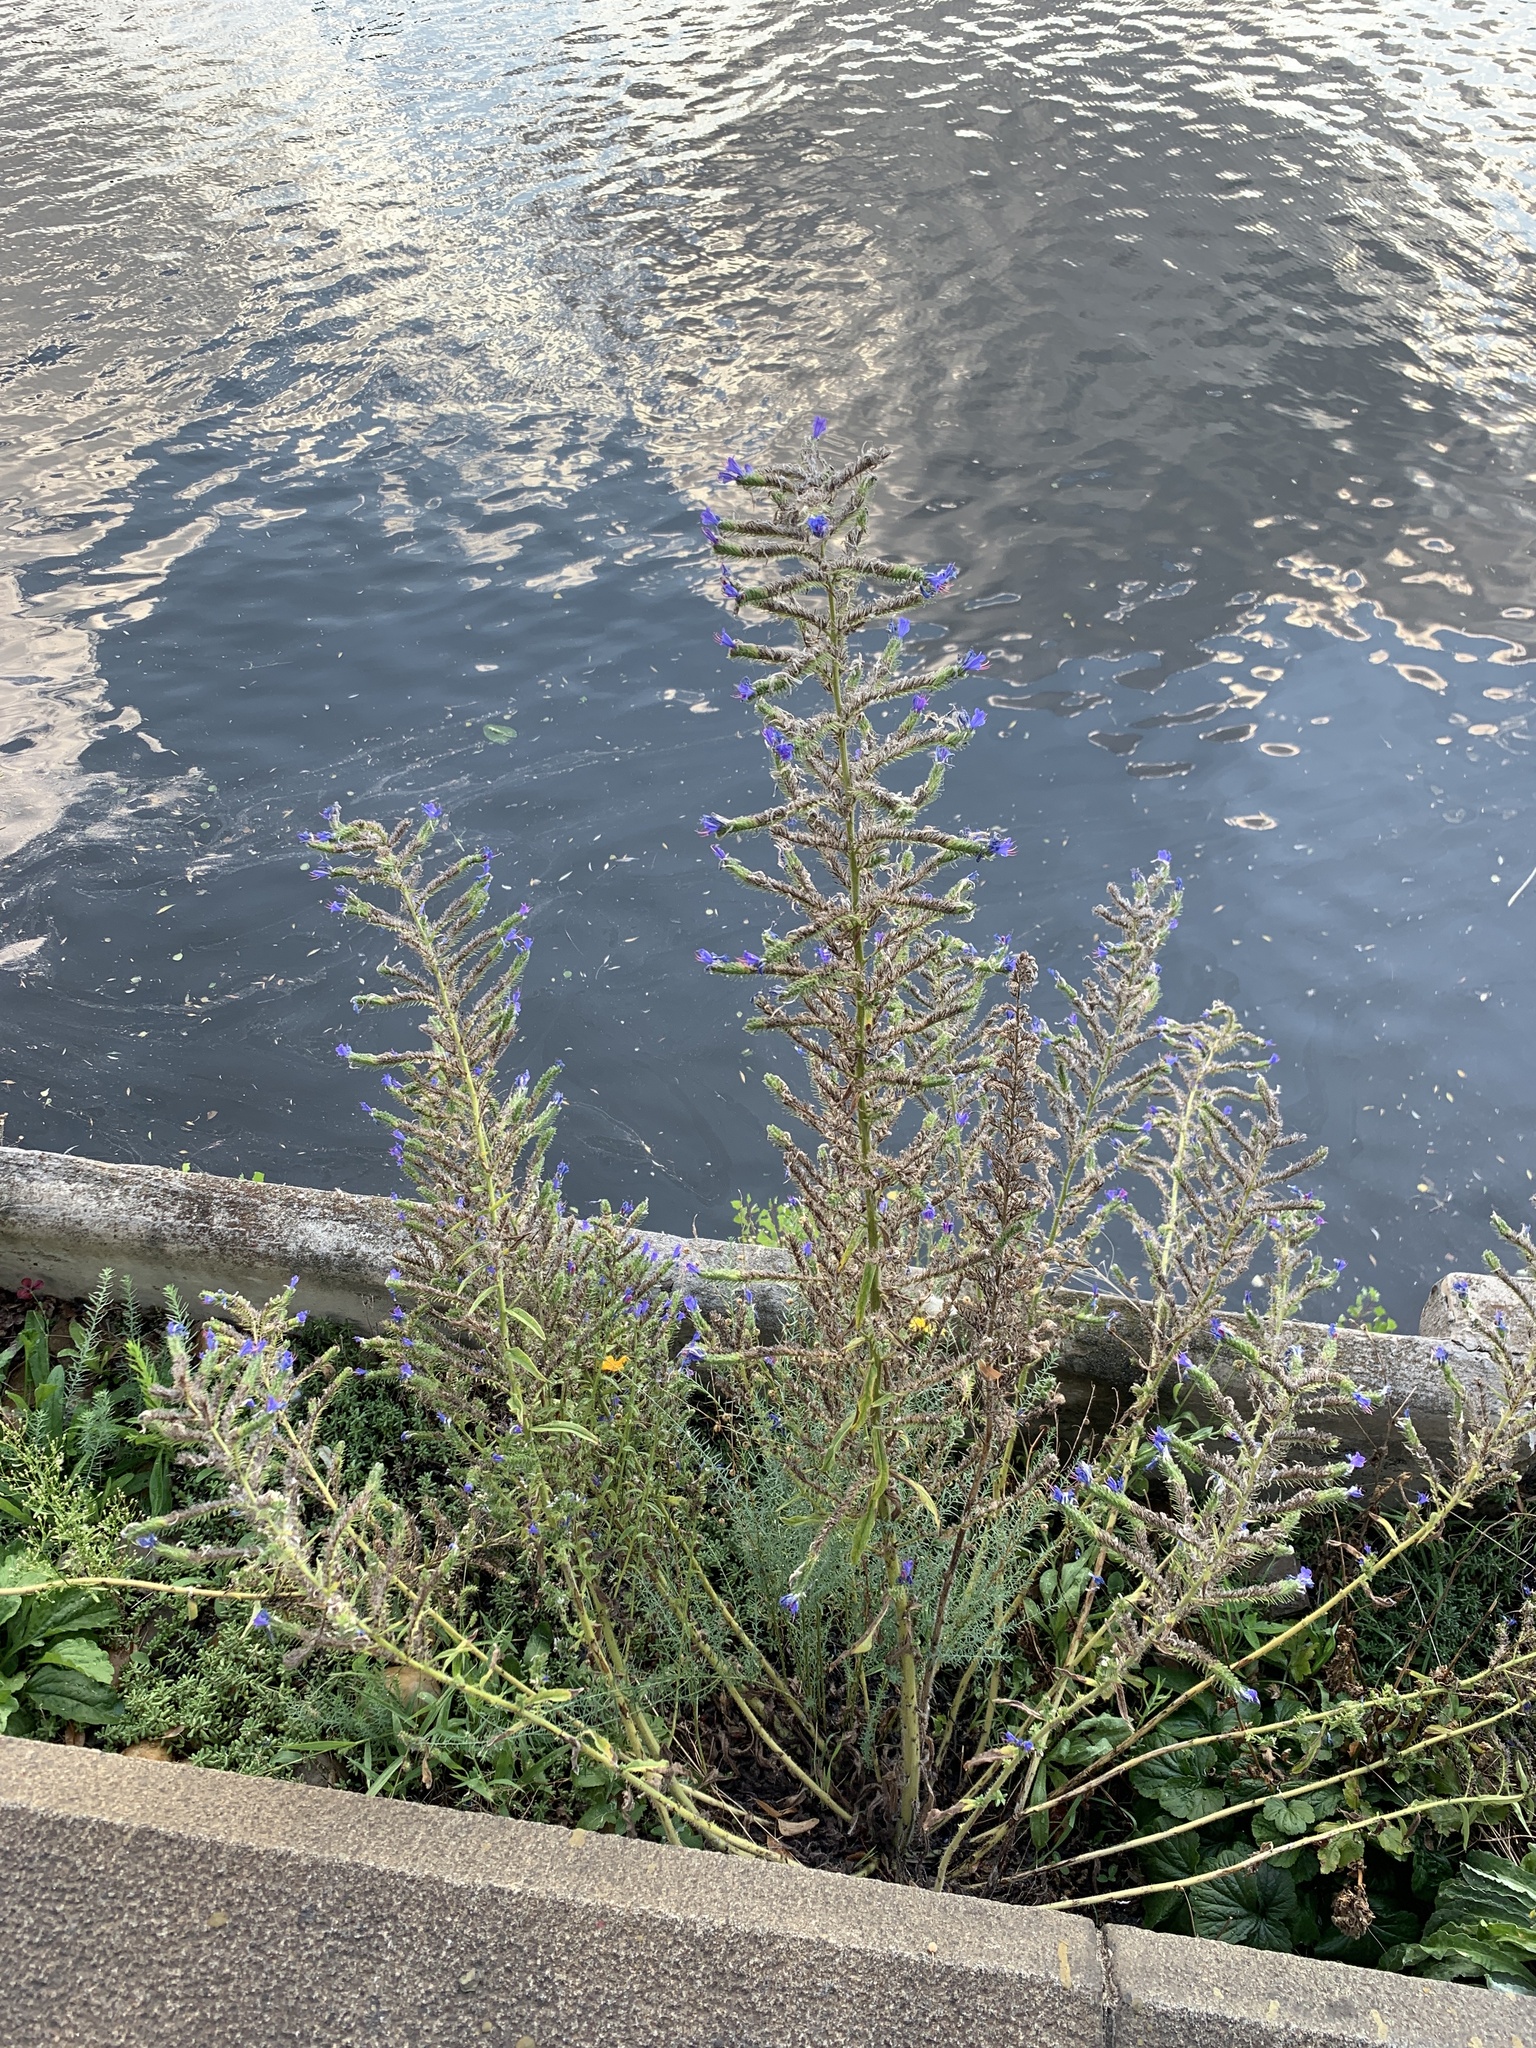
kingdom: Plantae
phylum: Tracheophyta
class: Magnoliopsida
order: Boraginales
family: Boraginaceae
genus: Echium
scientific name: Echium vulgare
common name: Common viper's bugloss
